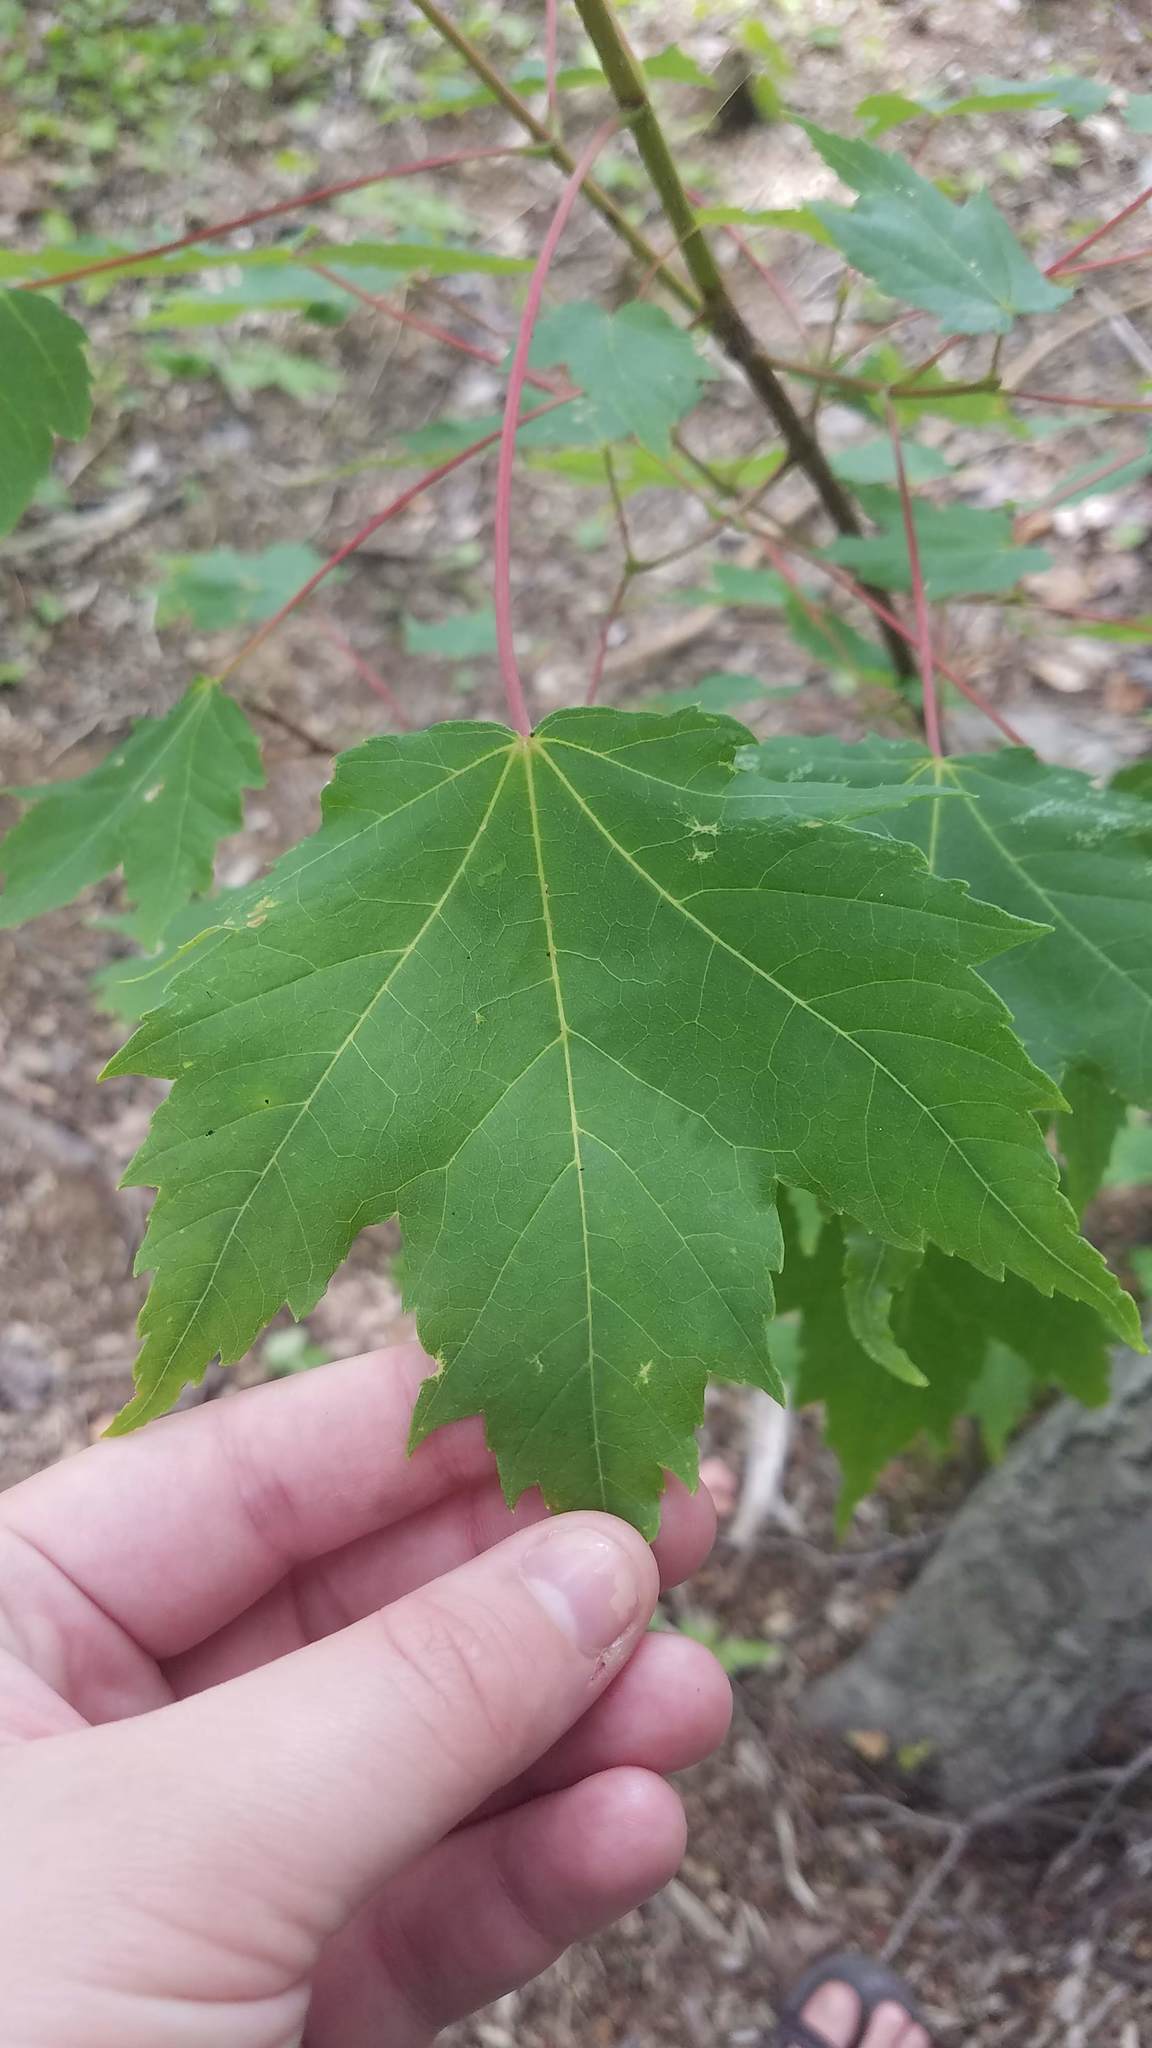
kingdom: Plantae
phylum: Tracheophyta
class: Magnoliopsida
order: Sapindales
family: Sapindaceae
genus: Acer
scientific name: Acer rubrum
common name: Red maple
